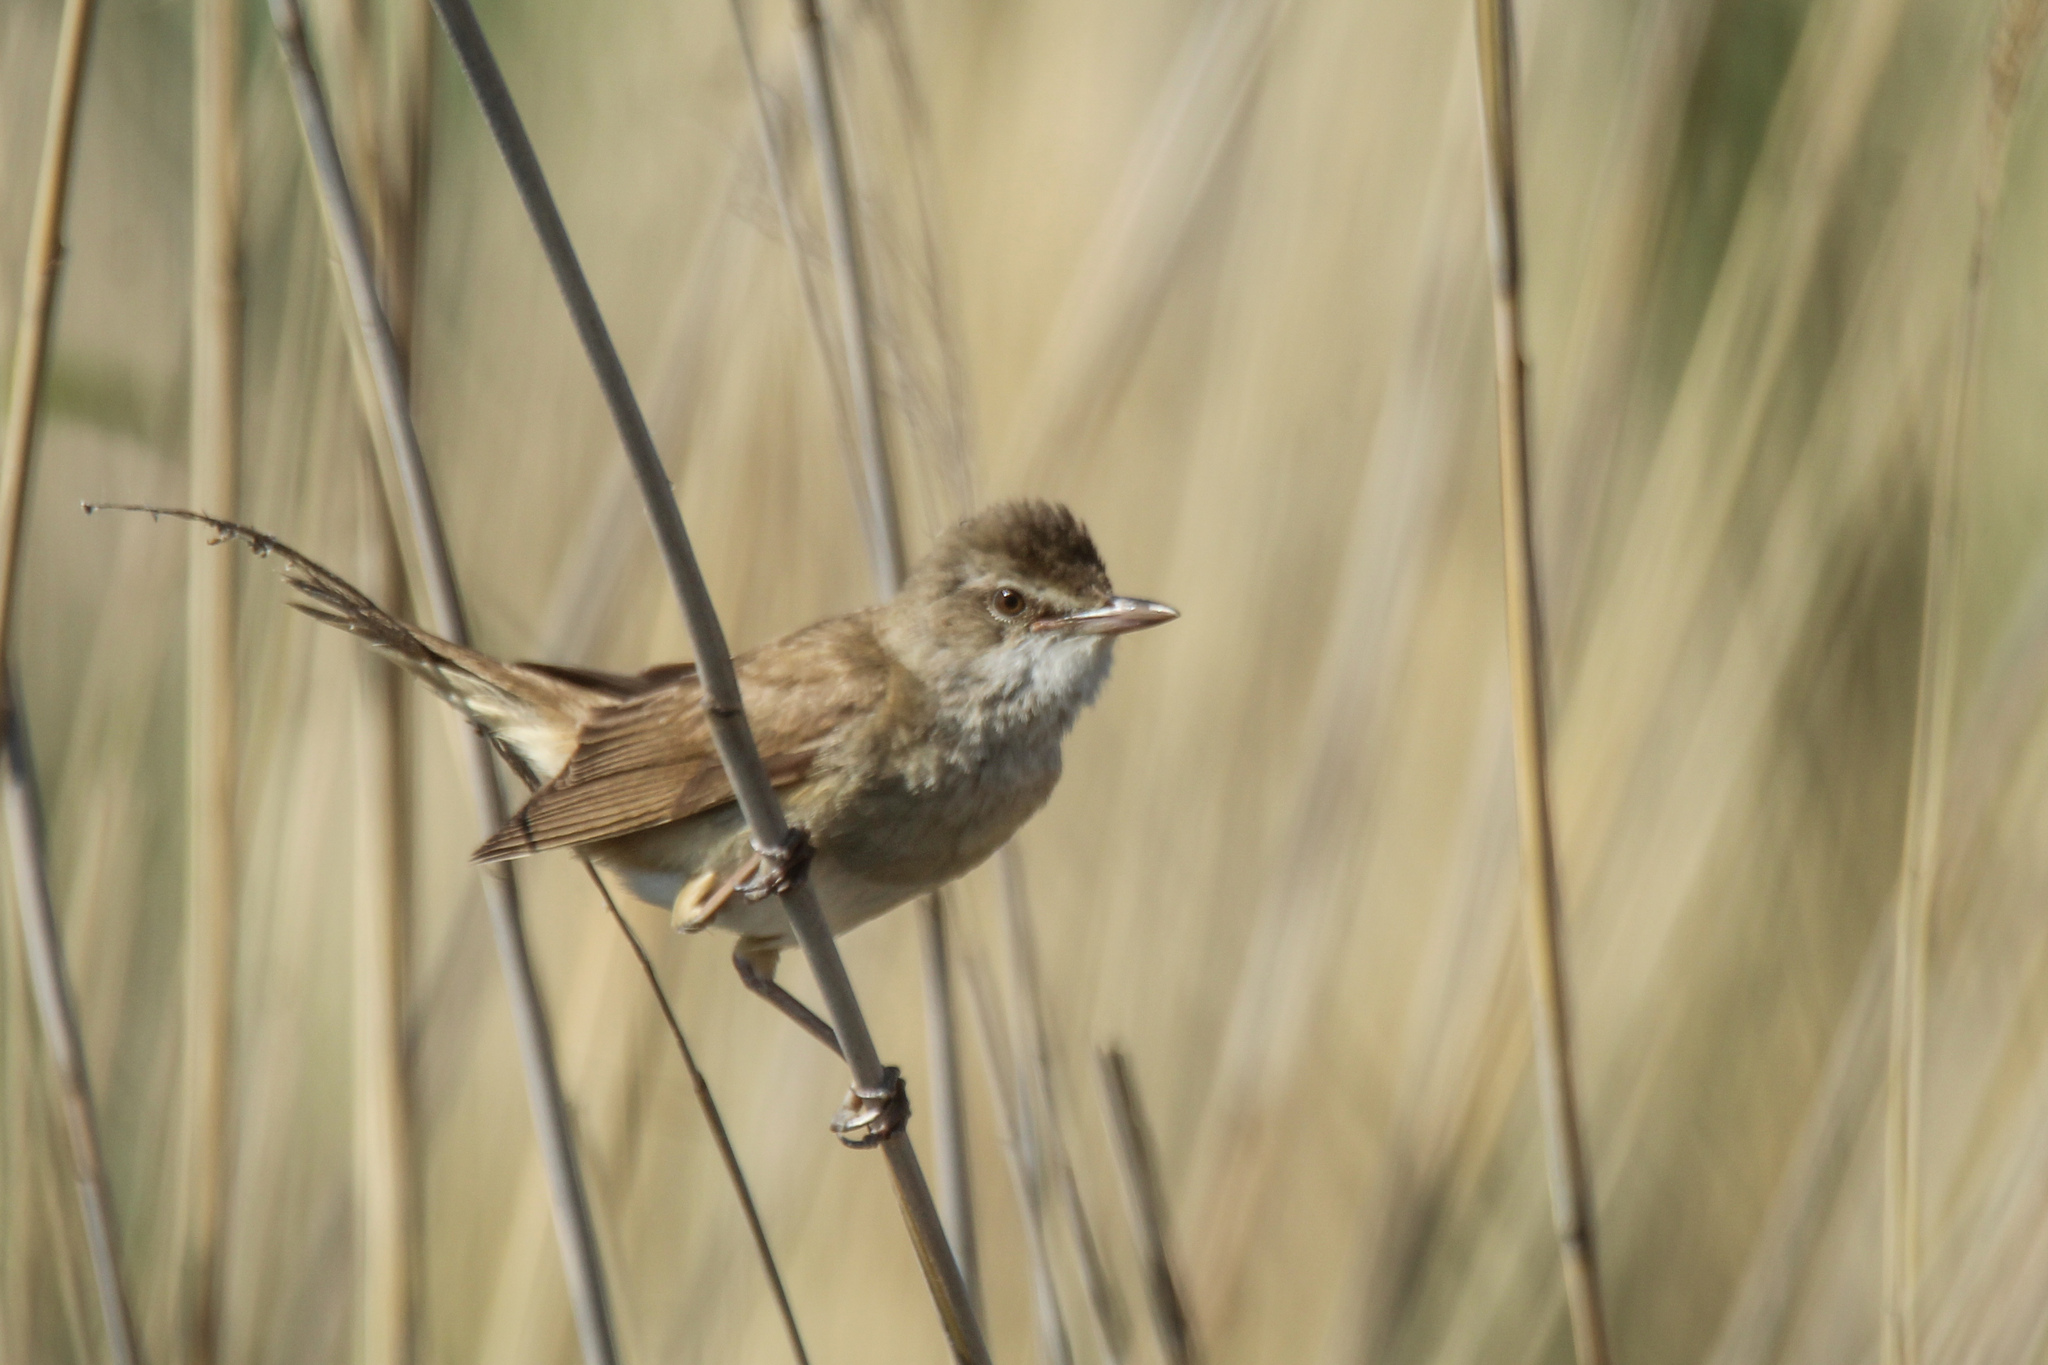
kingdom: Animalia
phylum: Chordata
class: Aves
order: Passeriformes
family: Acrocephalidae
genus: Acrocephalus
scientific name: Acrocephalus arundinaceus
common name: Great reed warbler
